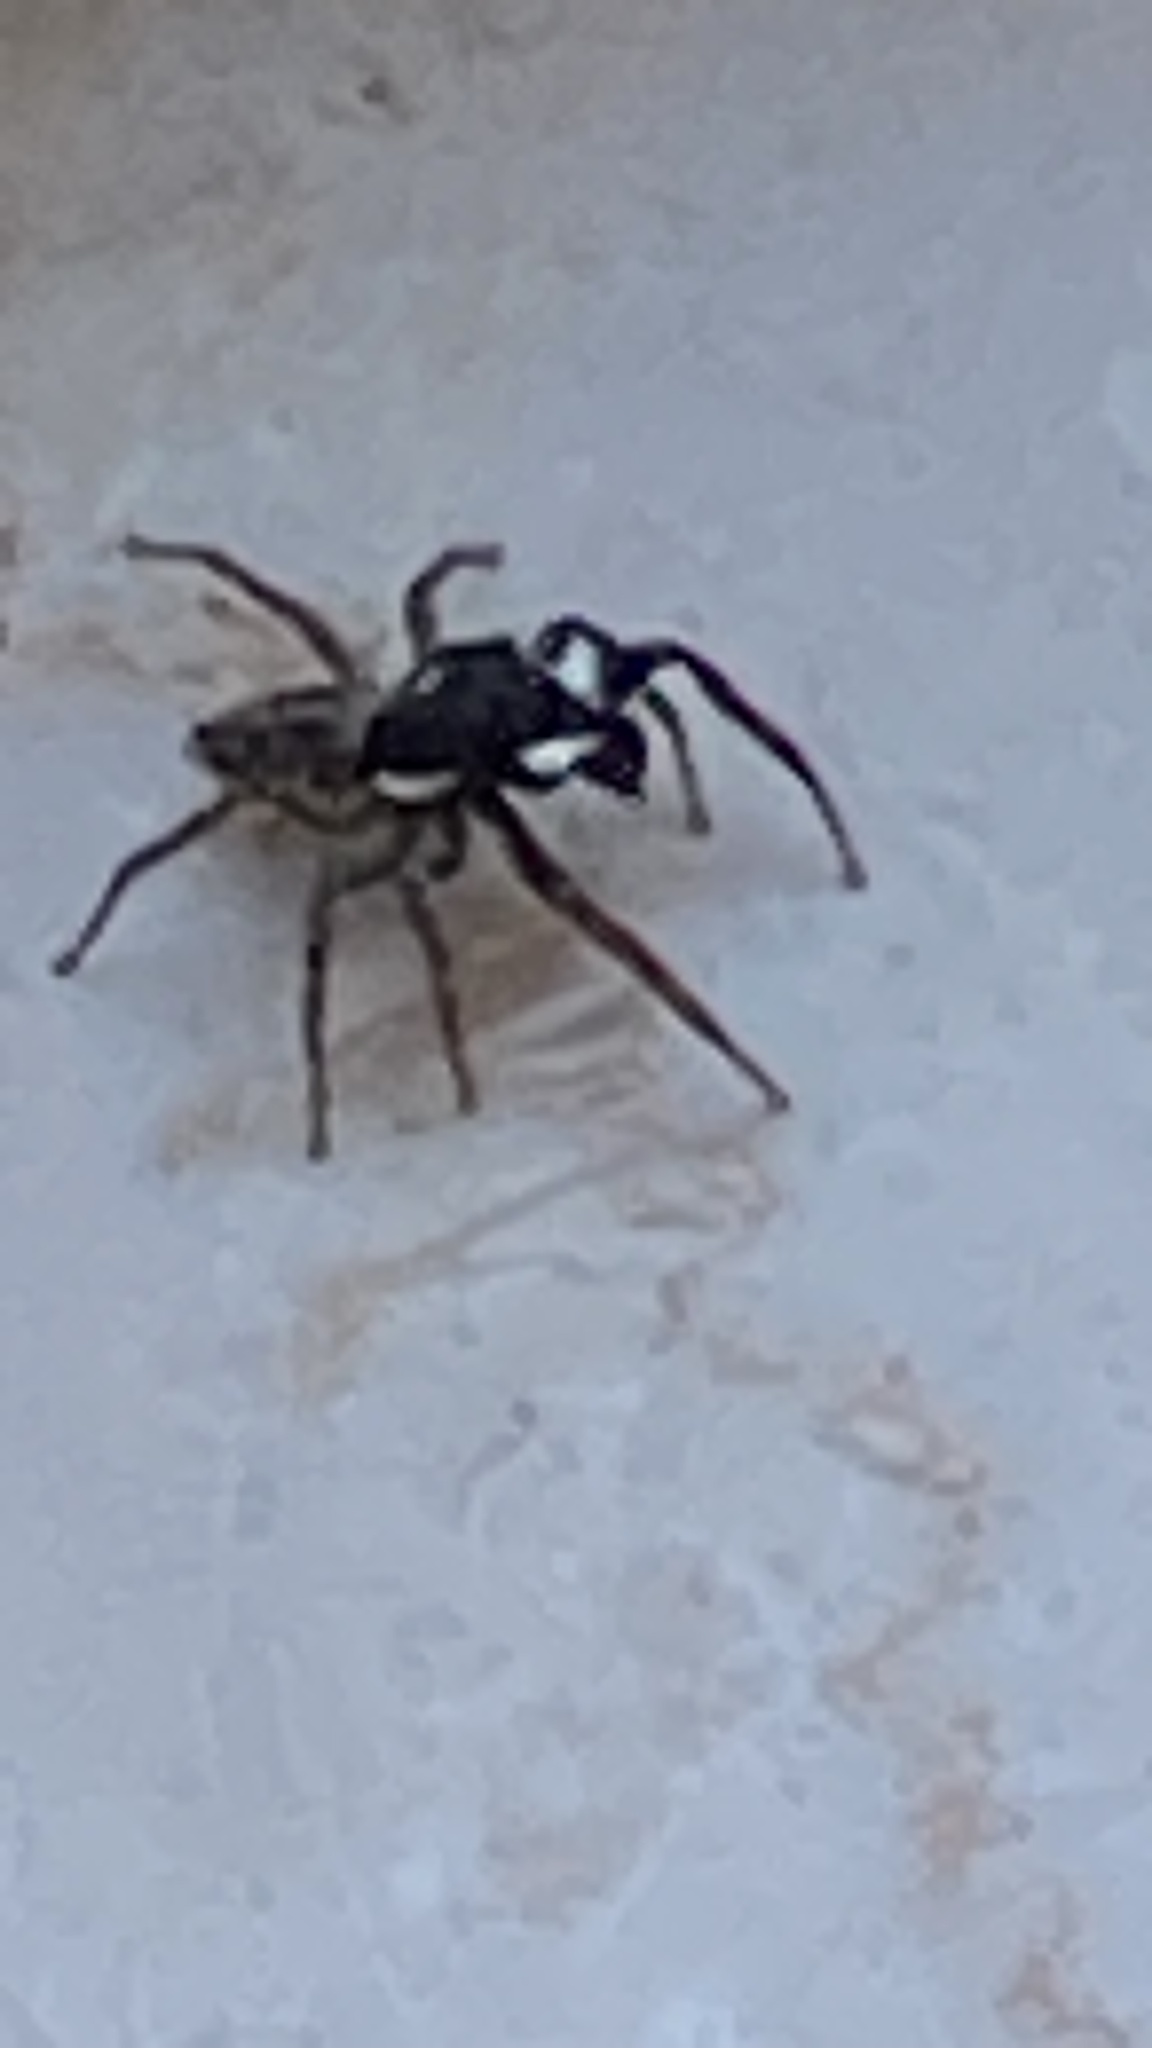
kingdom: Animalia
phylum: Arthropoda
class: Arachnida
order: Araneae
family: Salticidae
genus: Menemerus
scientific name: Menemerus semilimbatus
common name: Jumping spider
